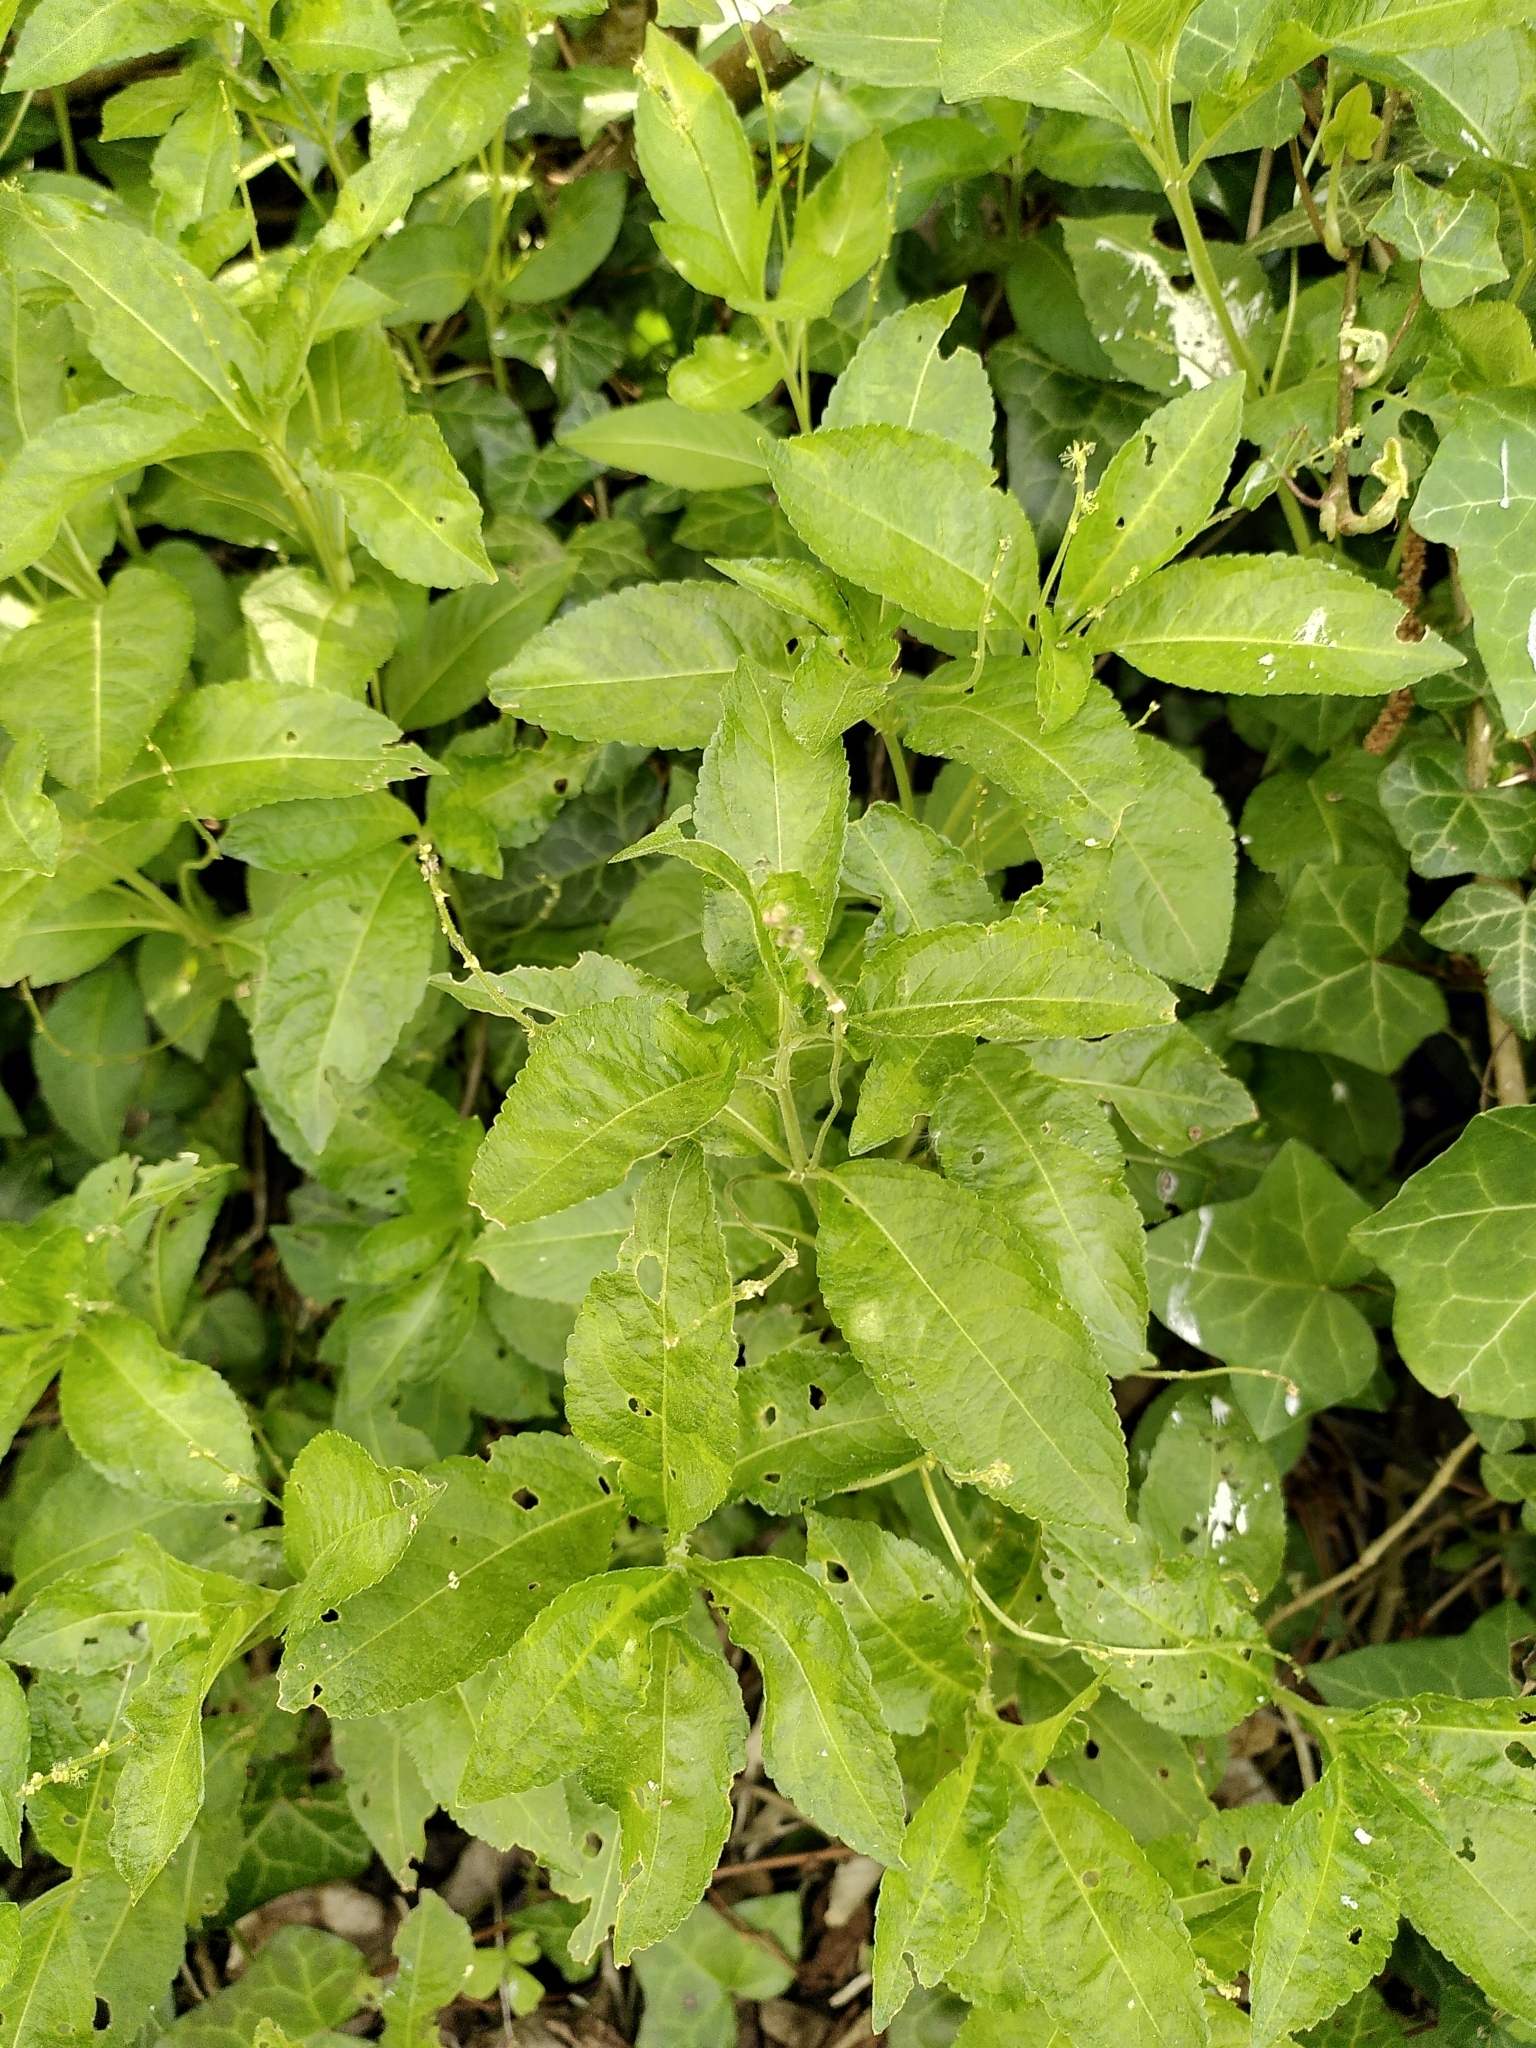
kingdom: Plantae
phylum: Tracheophyta
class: Magnoliopsida
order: Malpighiales
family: Euphorbiaceae
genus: Mercurialis
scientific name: Mercurialis perennis
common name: Dog mercury
